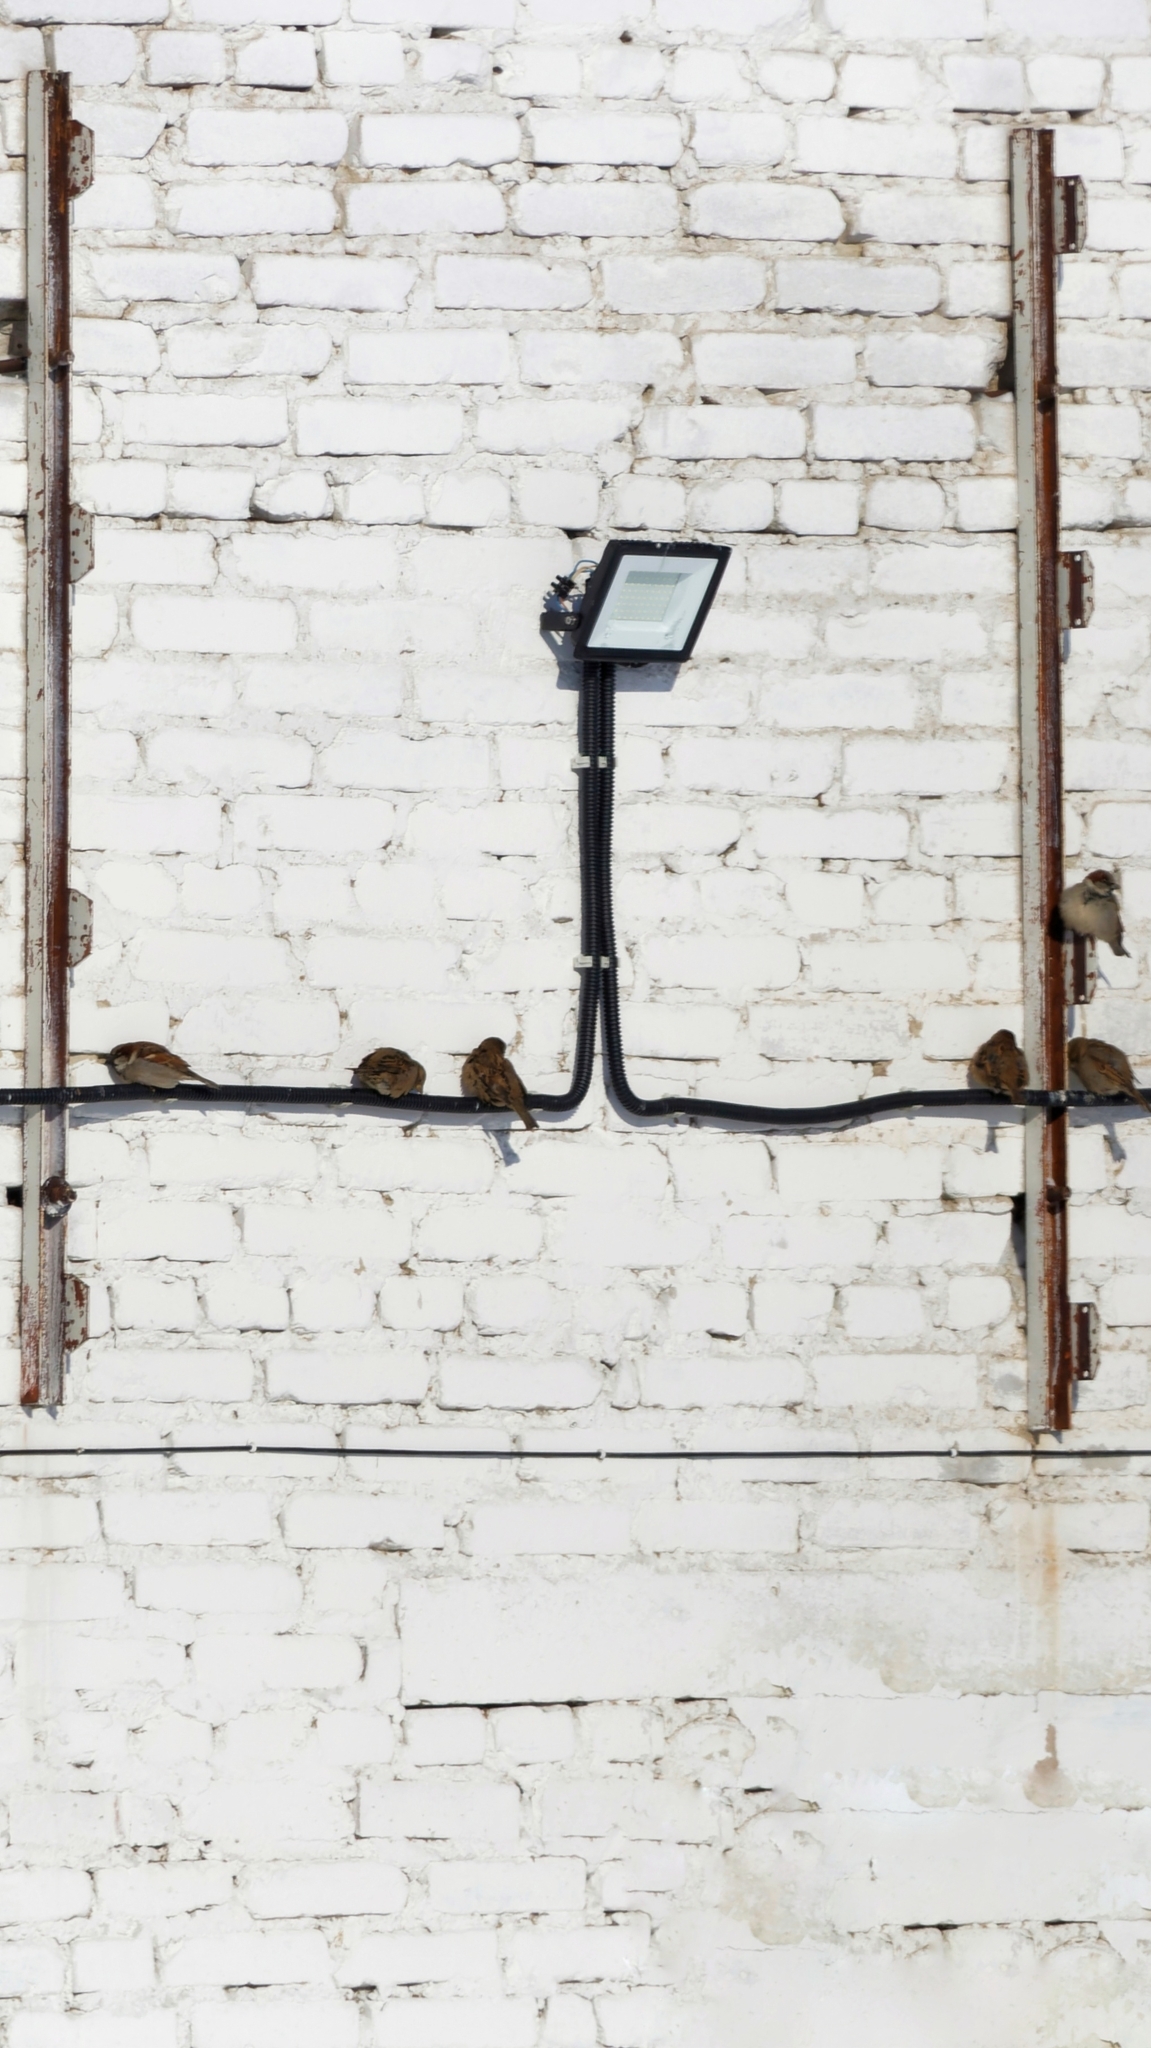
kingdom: Animalia
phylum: Chordata
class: Aves
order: Passeriformes
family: Passeridae
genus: Passer
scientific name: Passer domesticus
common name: House sparrow
